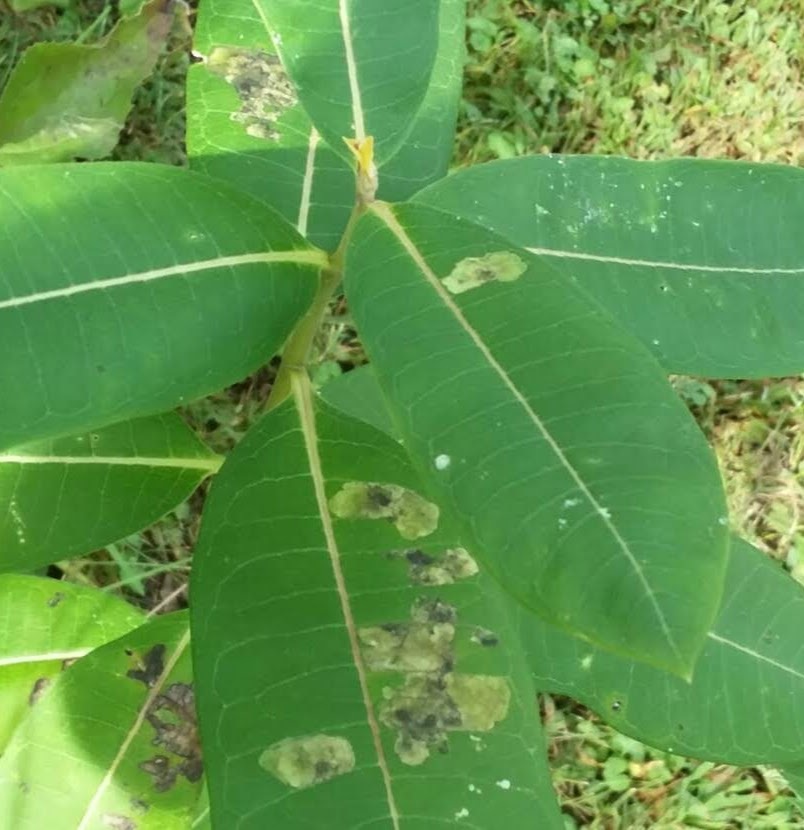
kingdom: Animalia
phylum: Arthropoda
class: Insecta
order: Diptera
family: Agromyzidae
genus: Liriomyza
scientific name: Liriomyza asclepiadis
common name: Milkweed leaf-miner fly
